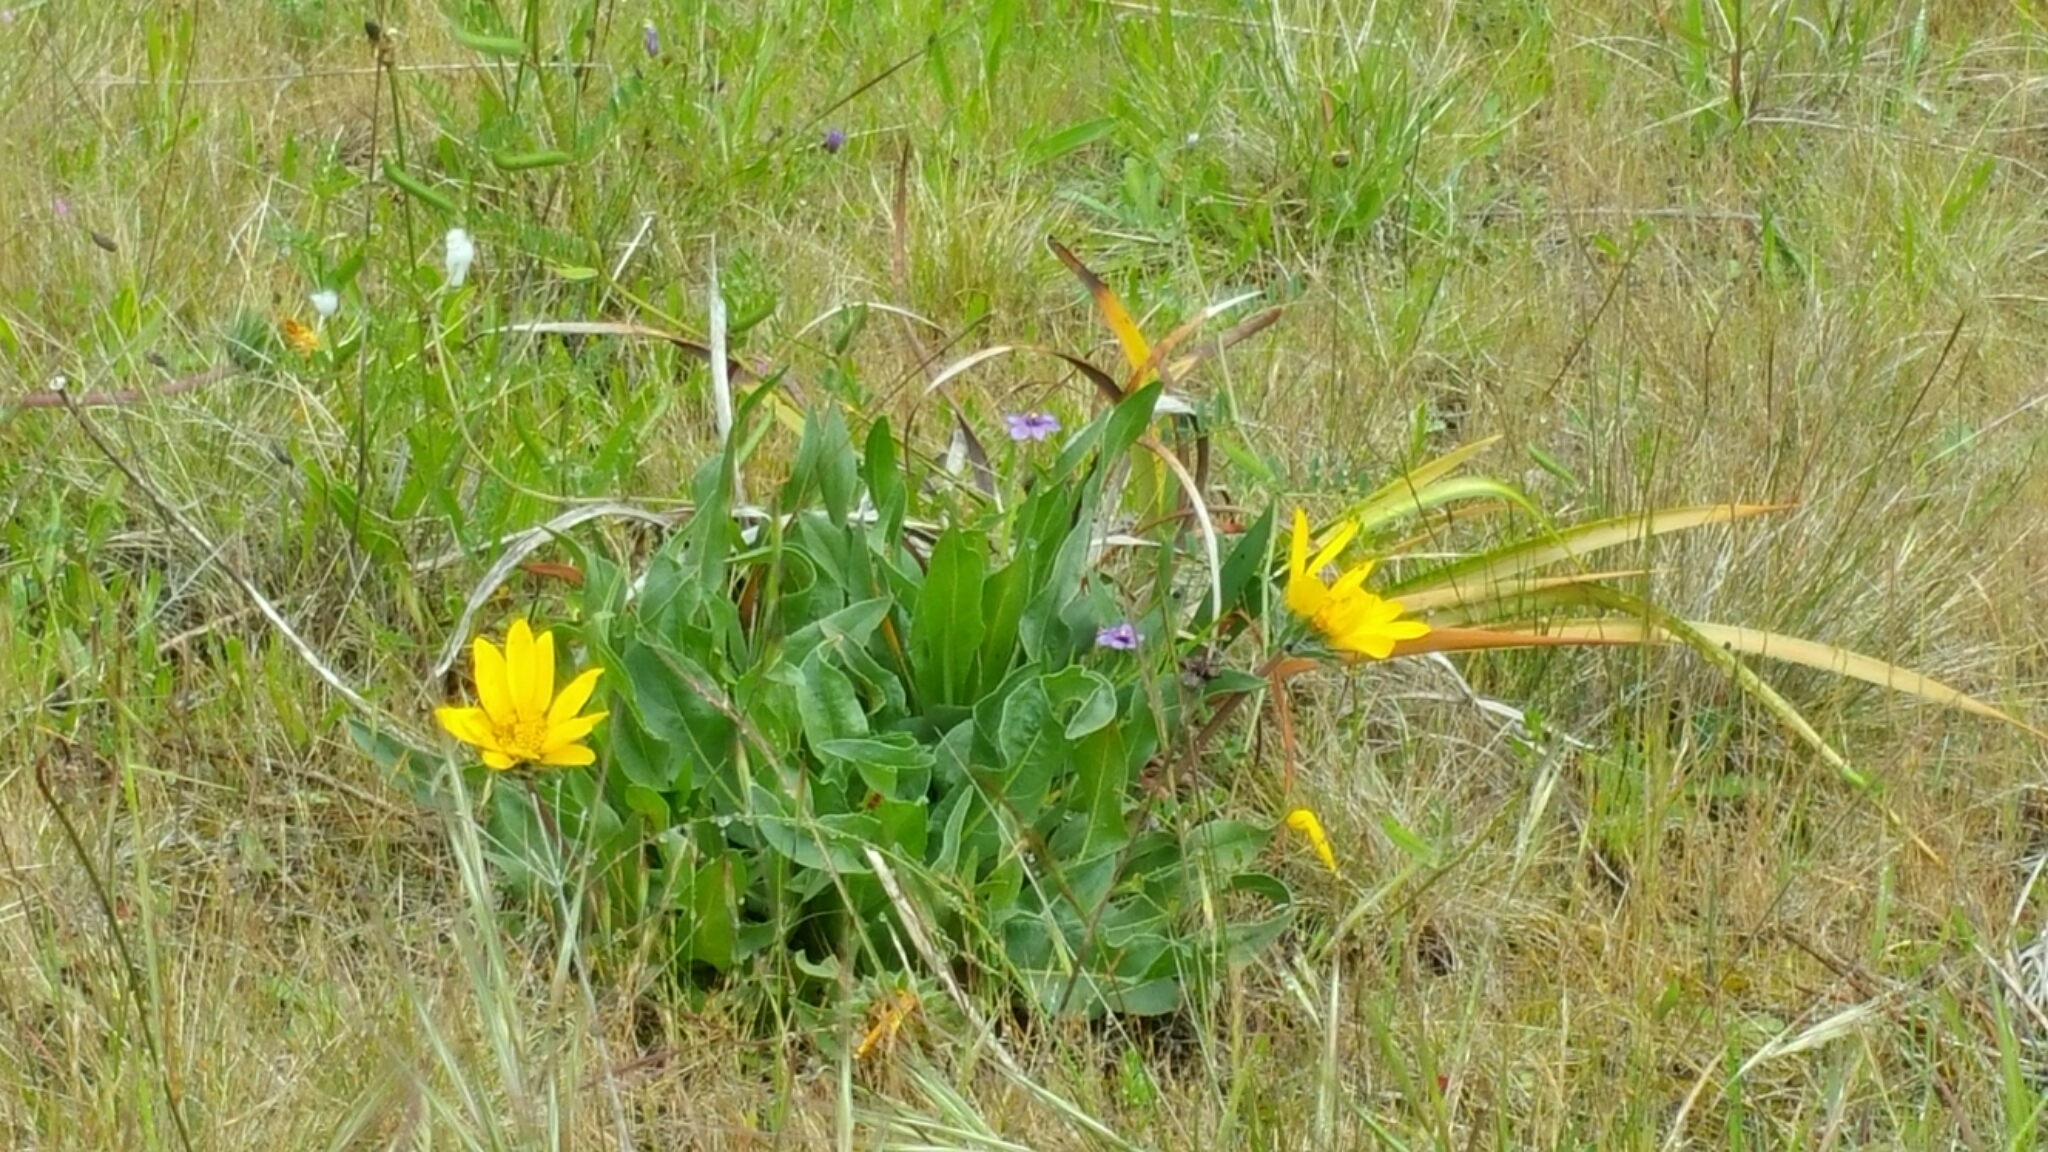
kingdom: Plantae
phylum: Tracheophyta
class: Magnoliopsida
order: Asterales
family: Asteraceae
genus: Wyethia
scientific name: Wyethia angustifolia
